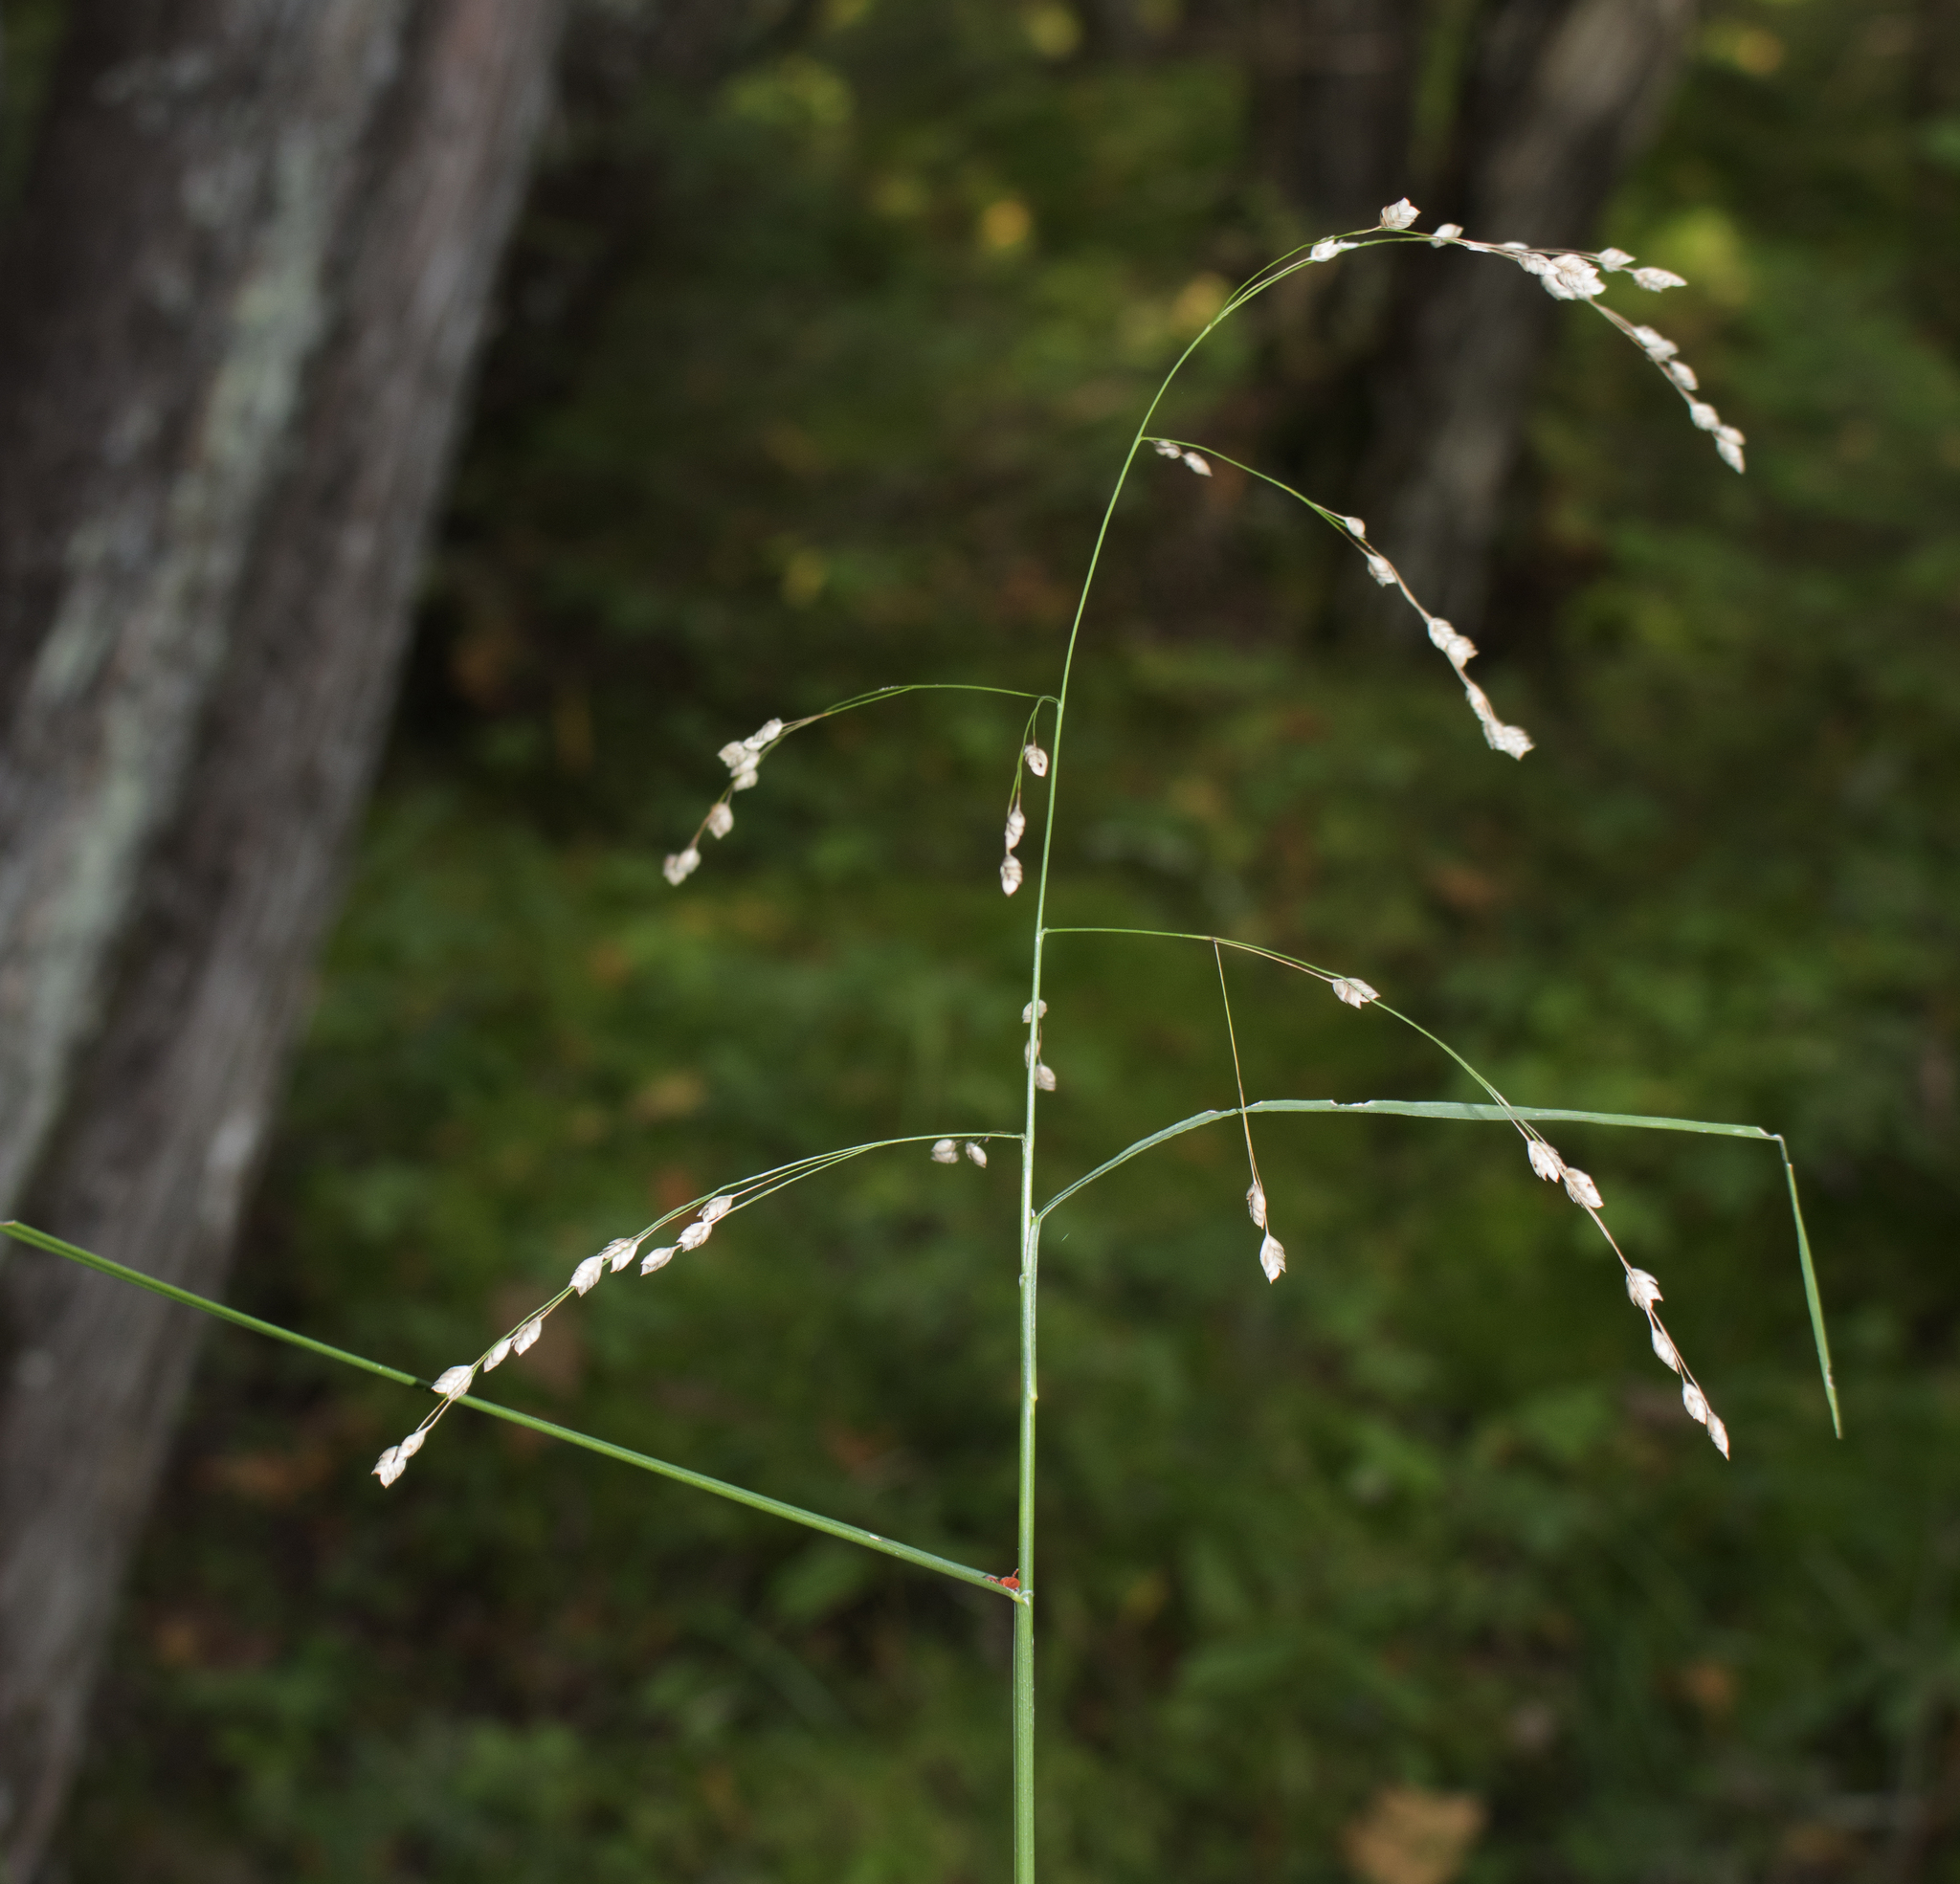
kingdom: Plantae
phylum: Tracheophyta
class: Liliopsida
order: Poales
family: Poaceae
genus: Glyceria
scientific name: Glyceria canadensis
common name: Canada mannagrass
